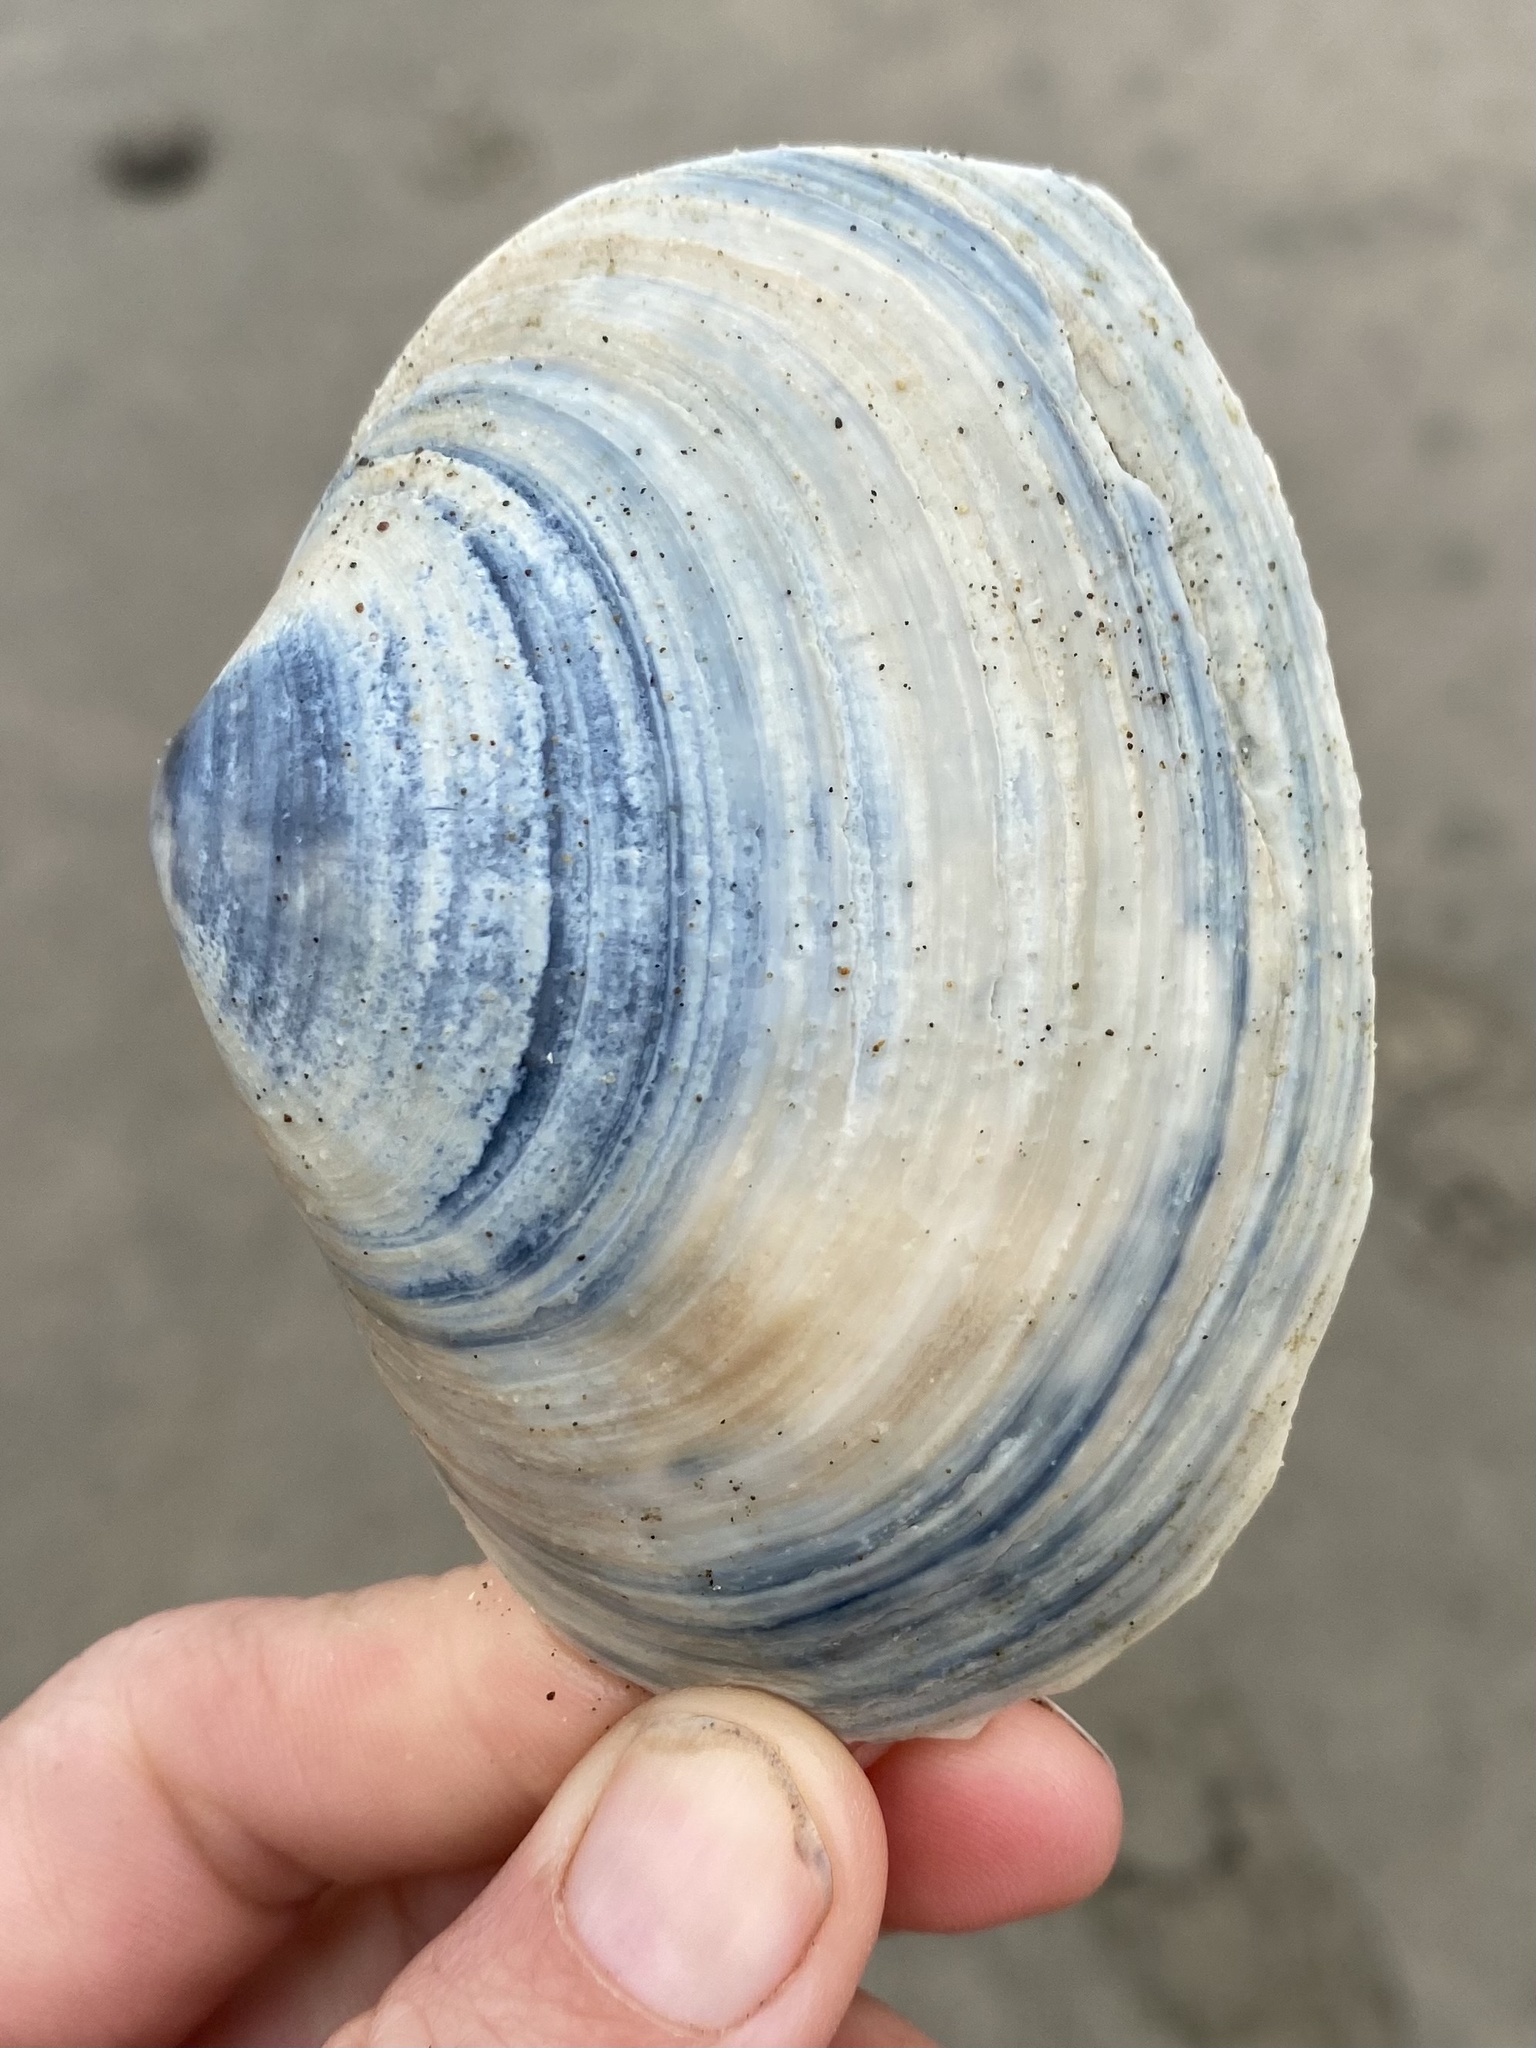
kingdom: Animalia
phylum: Mollusca
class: Bivalvia
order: Venerida
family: Mactridae
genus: Mactromeris
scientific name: Mactromeris catilliformis
